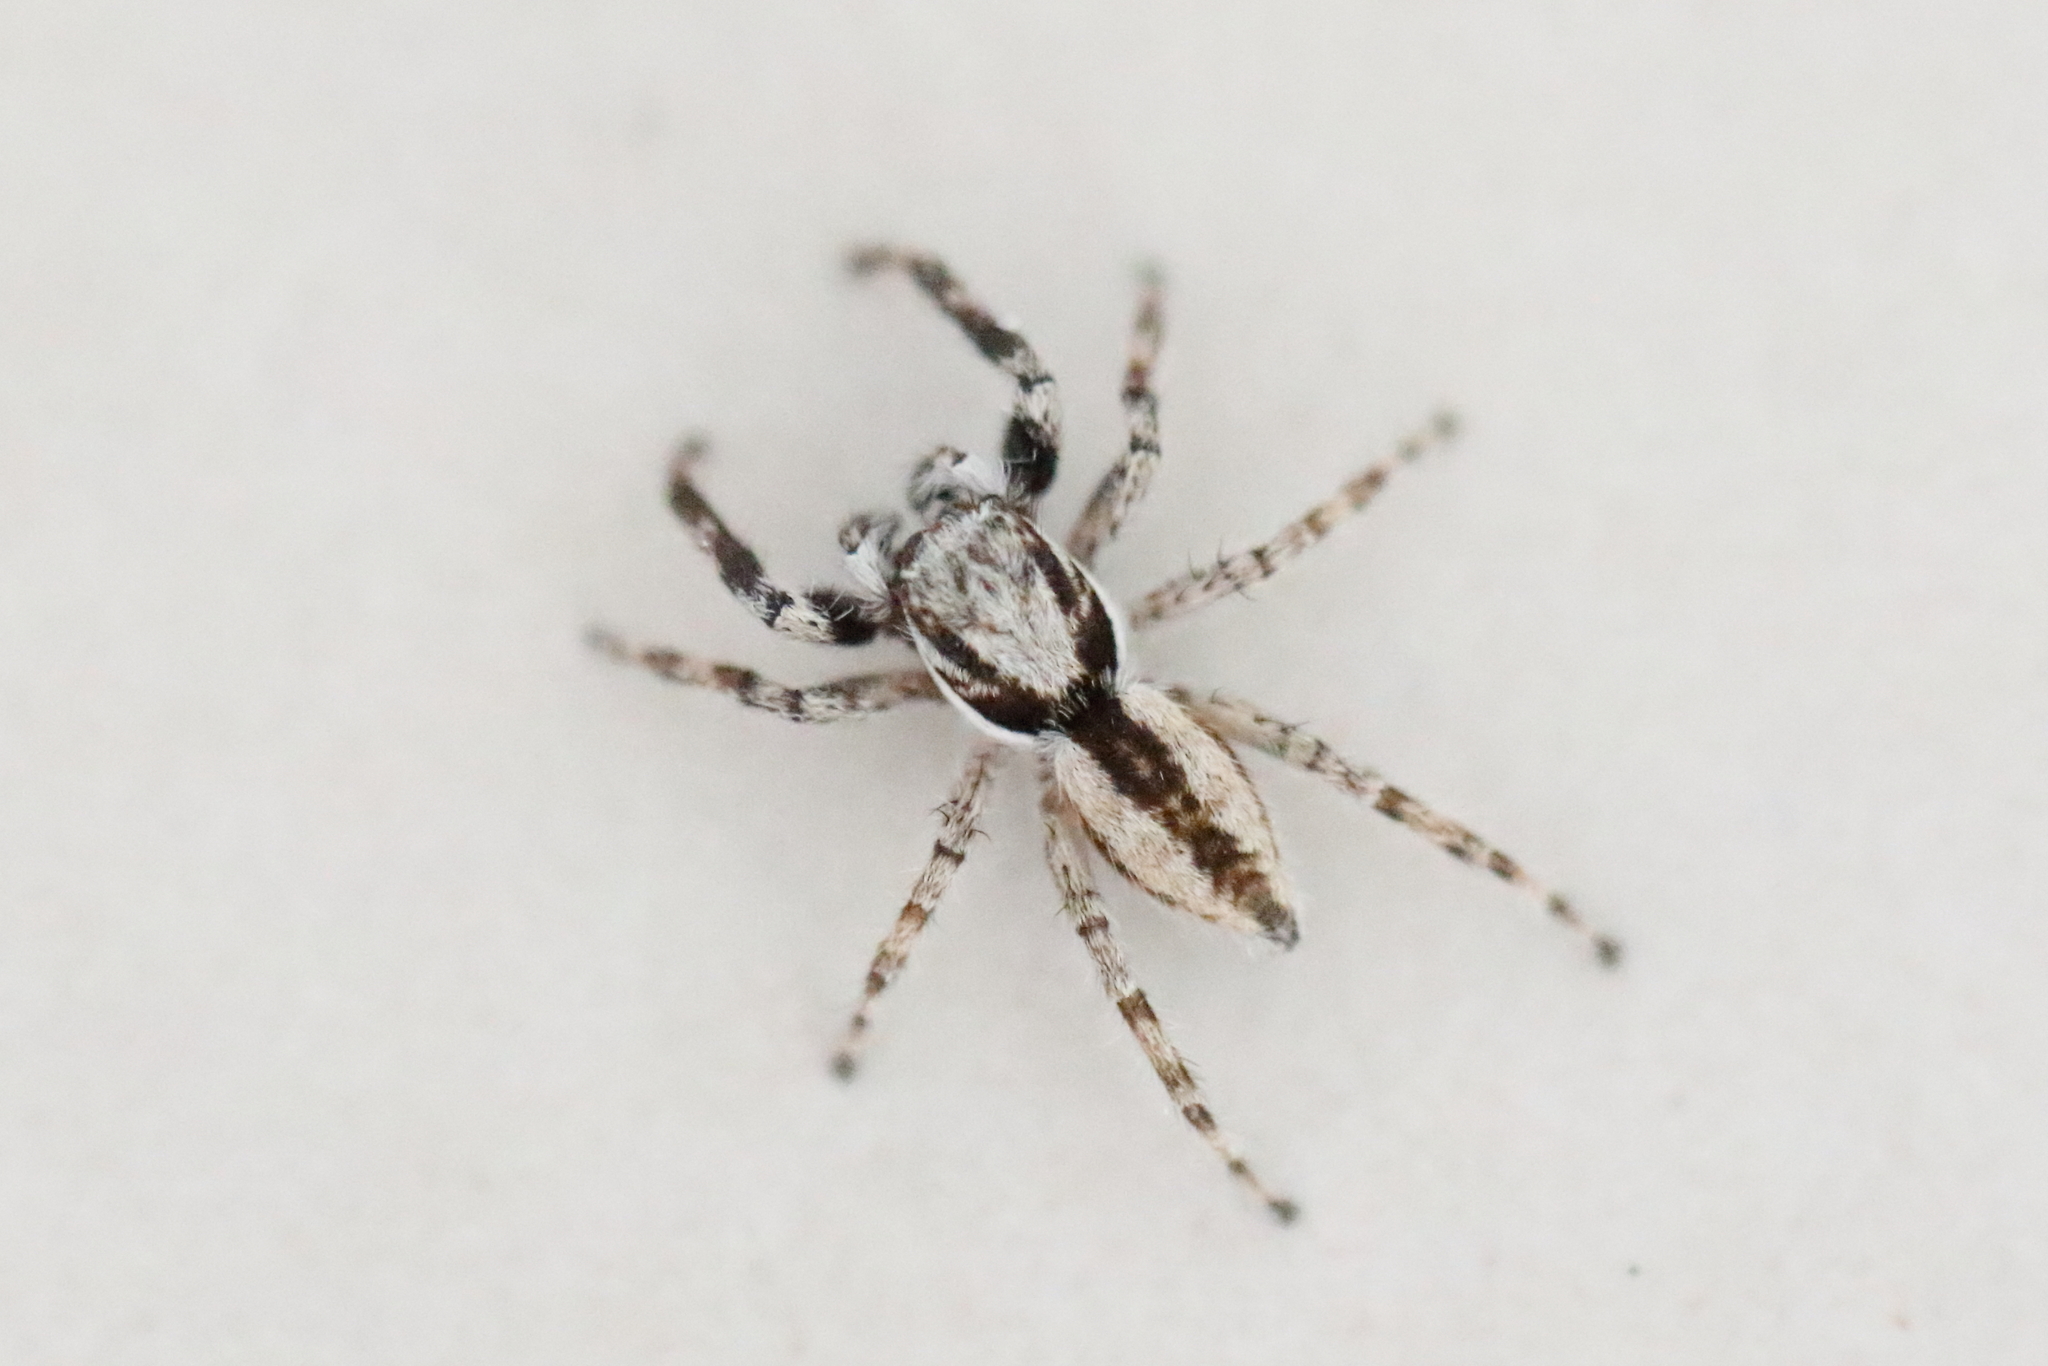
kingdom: Animalia
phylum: Arthropoda
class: Arachnida
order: Araneae
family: Salticidae
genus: Menemerus
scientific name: Menemerus bivittatus
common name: Gray wall jumper
